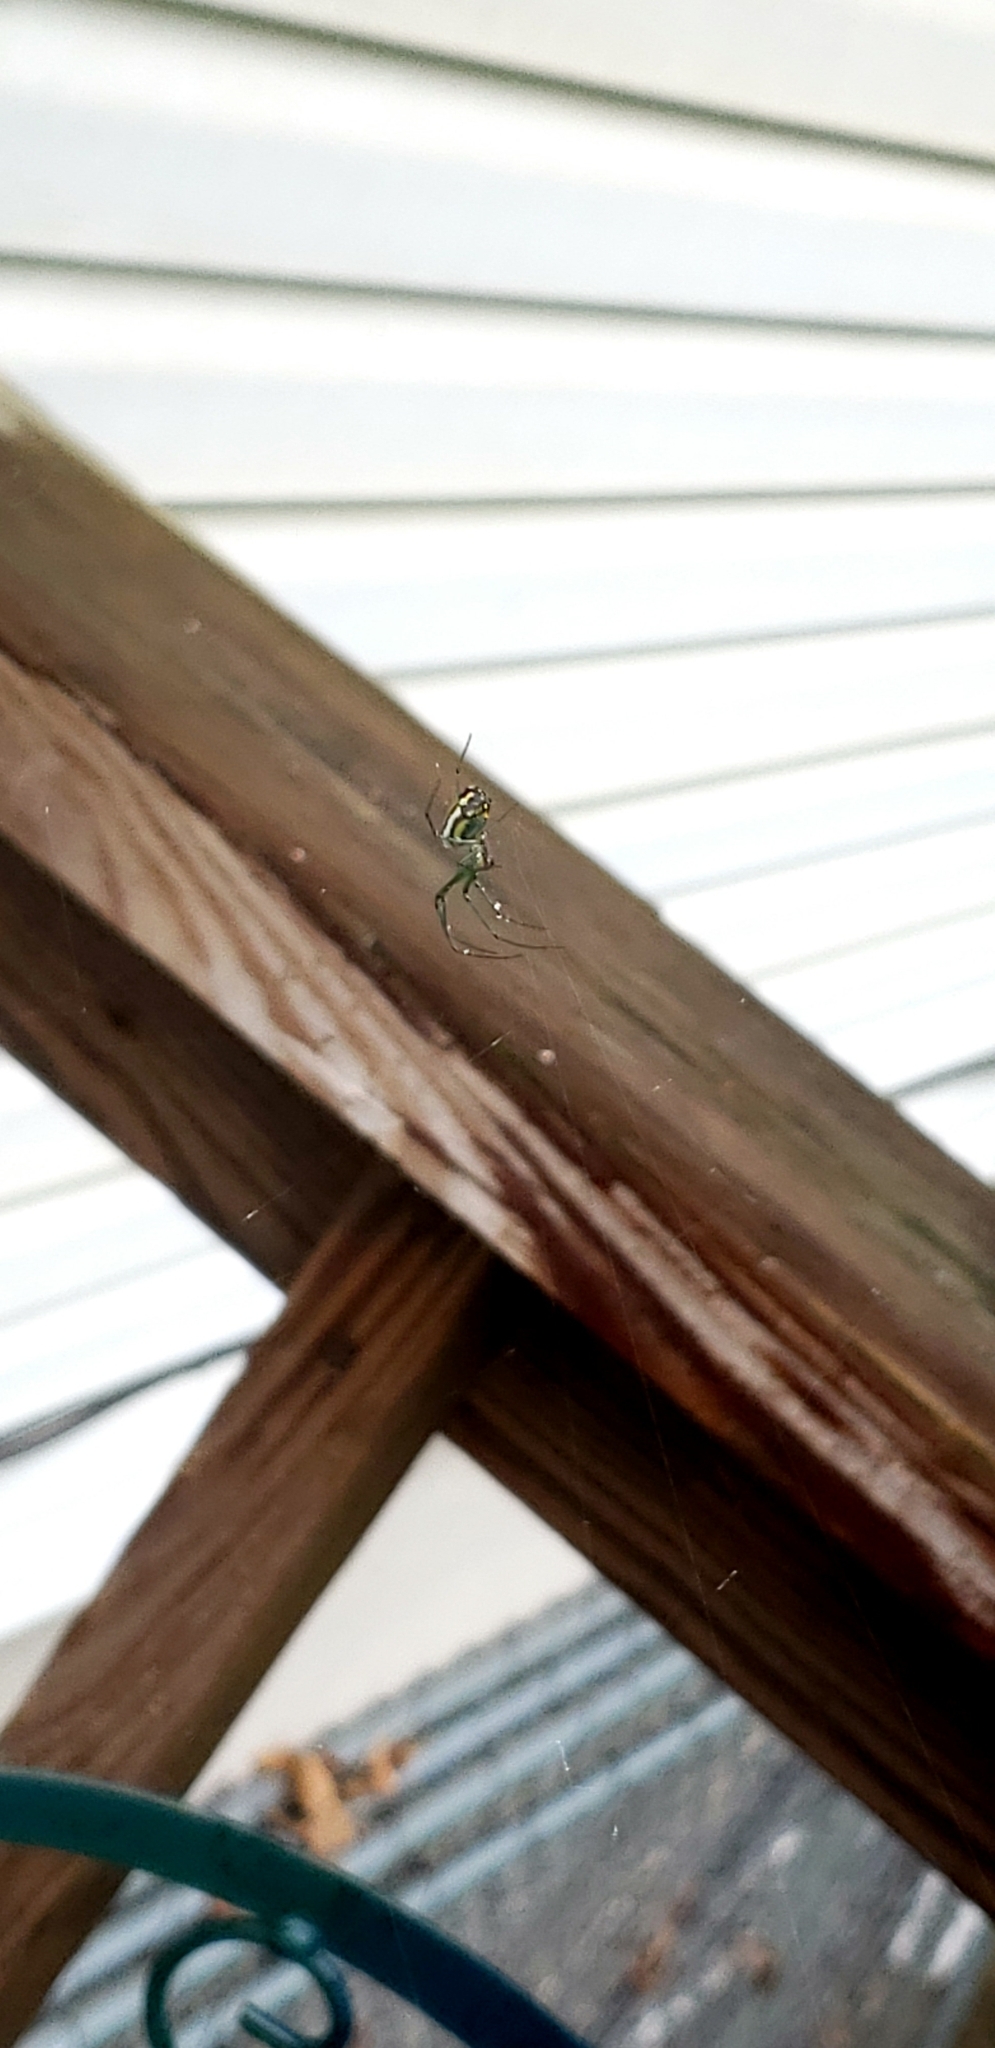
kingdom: Animalia
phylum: Arthropoda
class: Arachnida
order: Araneae
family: Tetragnathidae
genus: Leucauge
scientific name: Leucauge venusta
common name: Longjawed orb weavers
